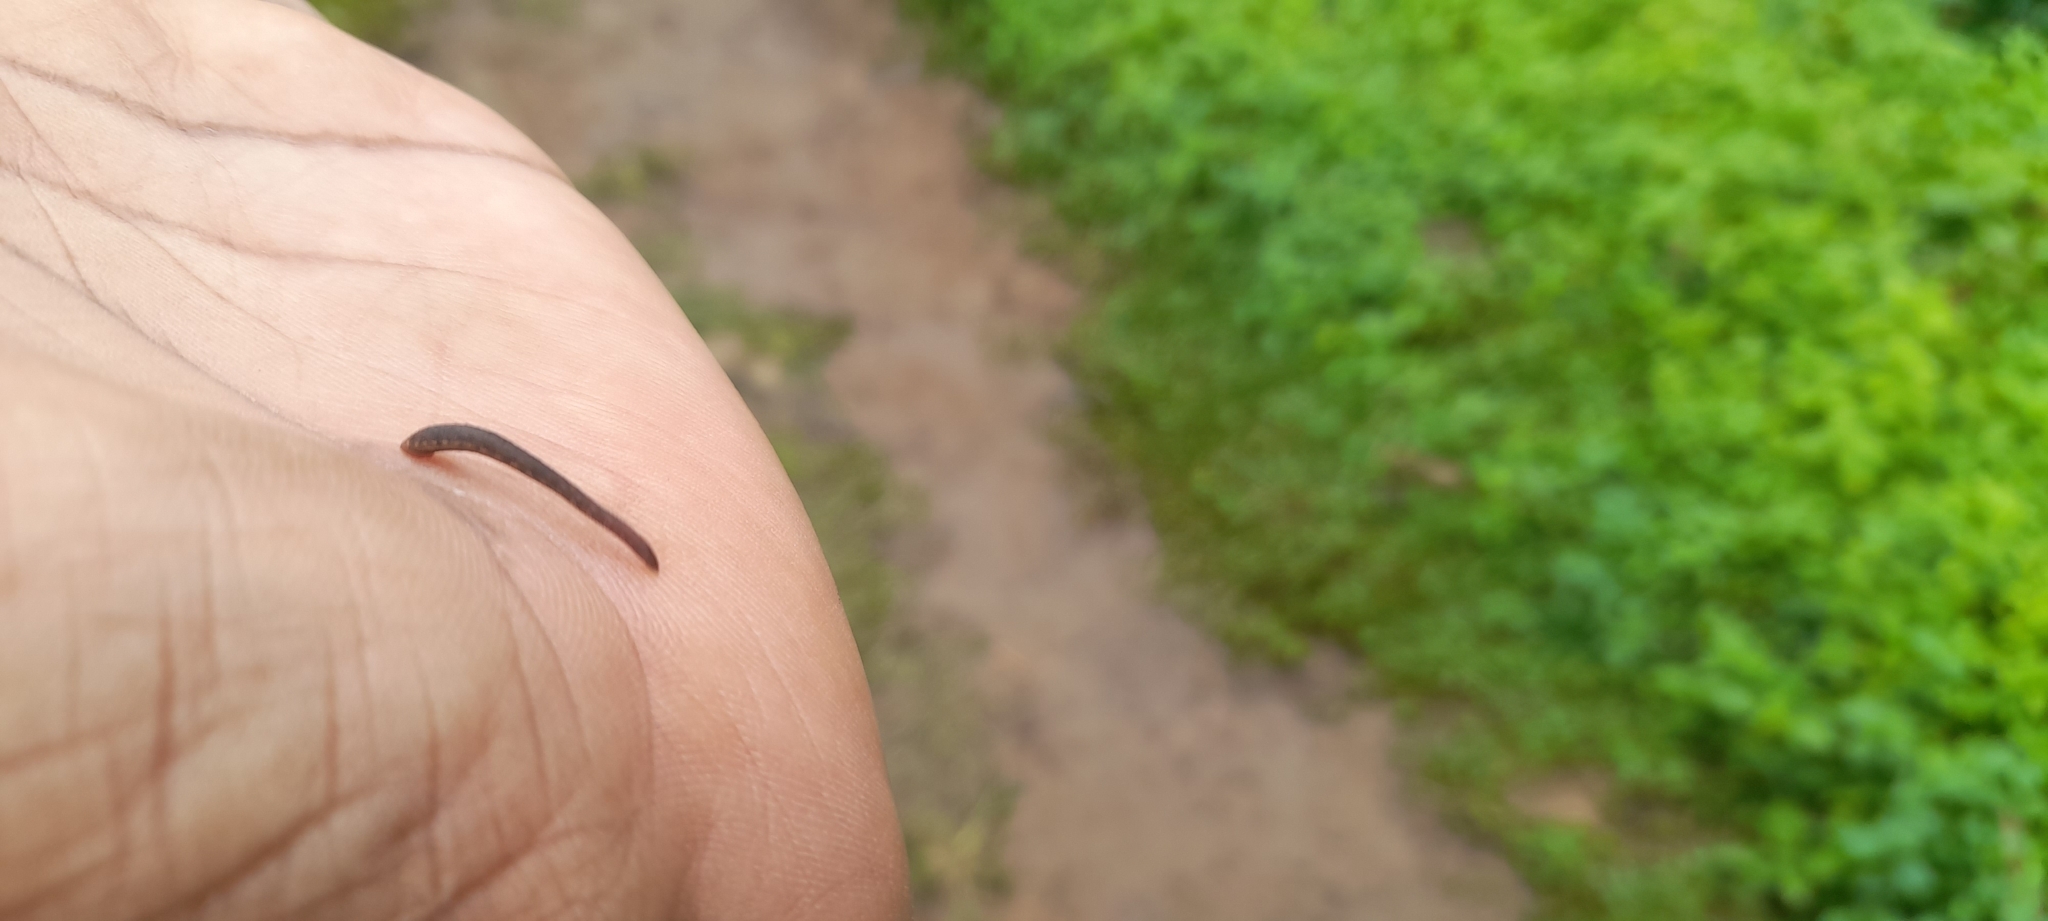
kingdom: Animalia
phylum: Annelida
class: Clitellata
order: Arhynchobdellida
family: Haemadipsidae
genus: Haemadipsa
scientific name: Haemadipsa zeylanica
